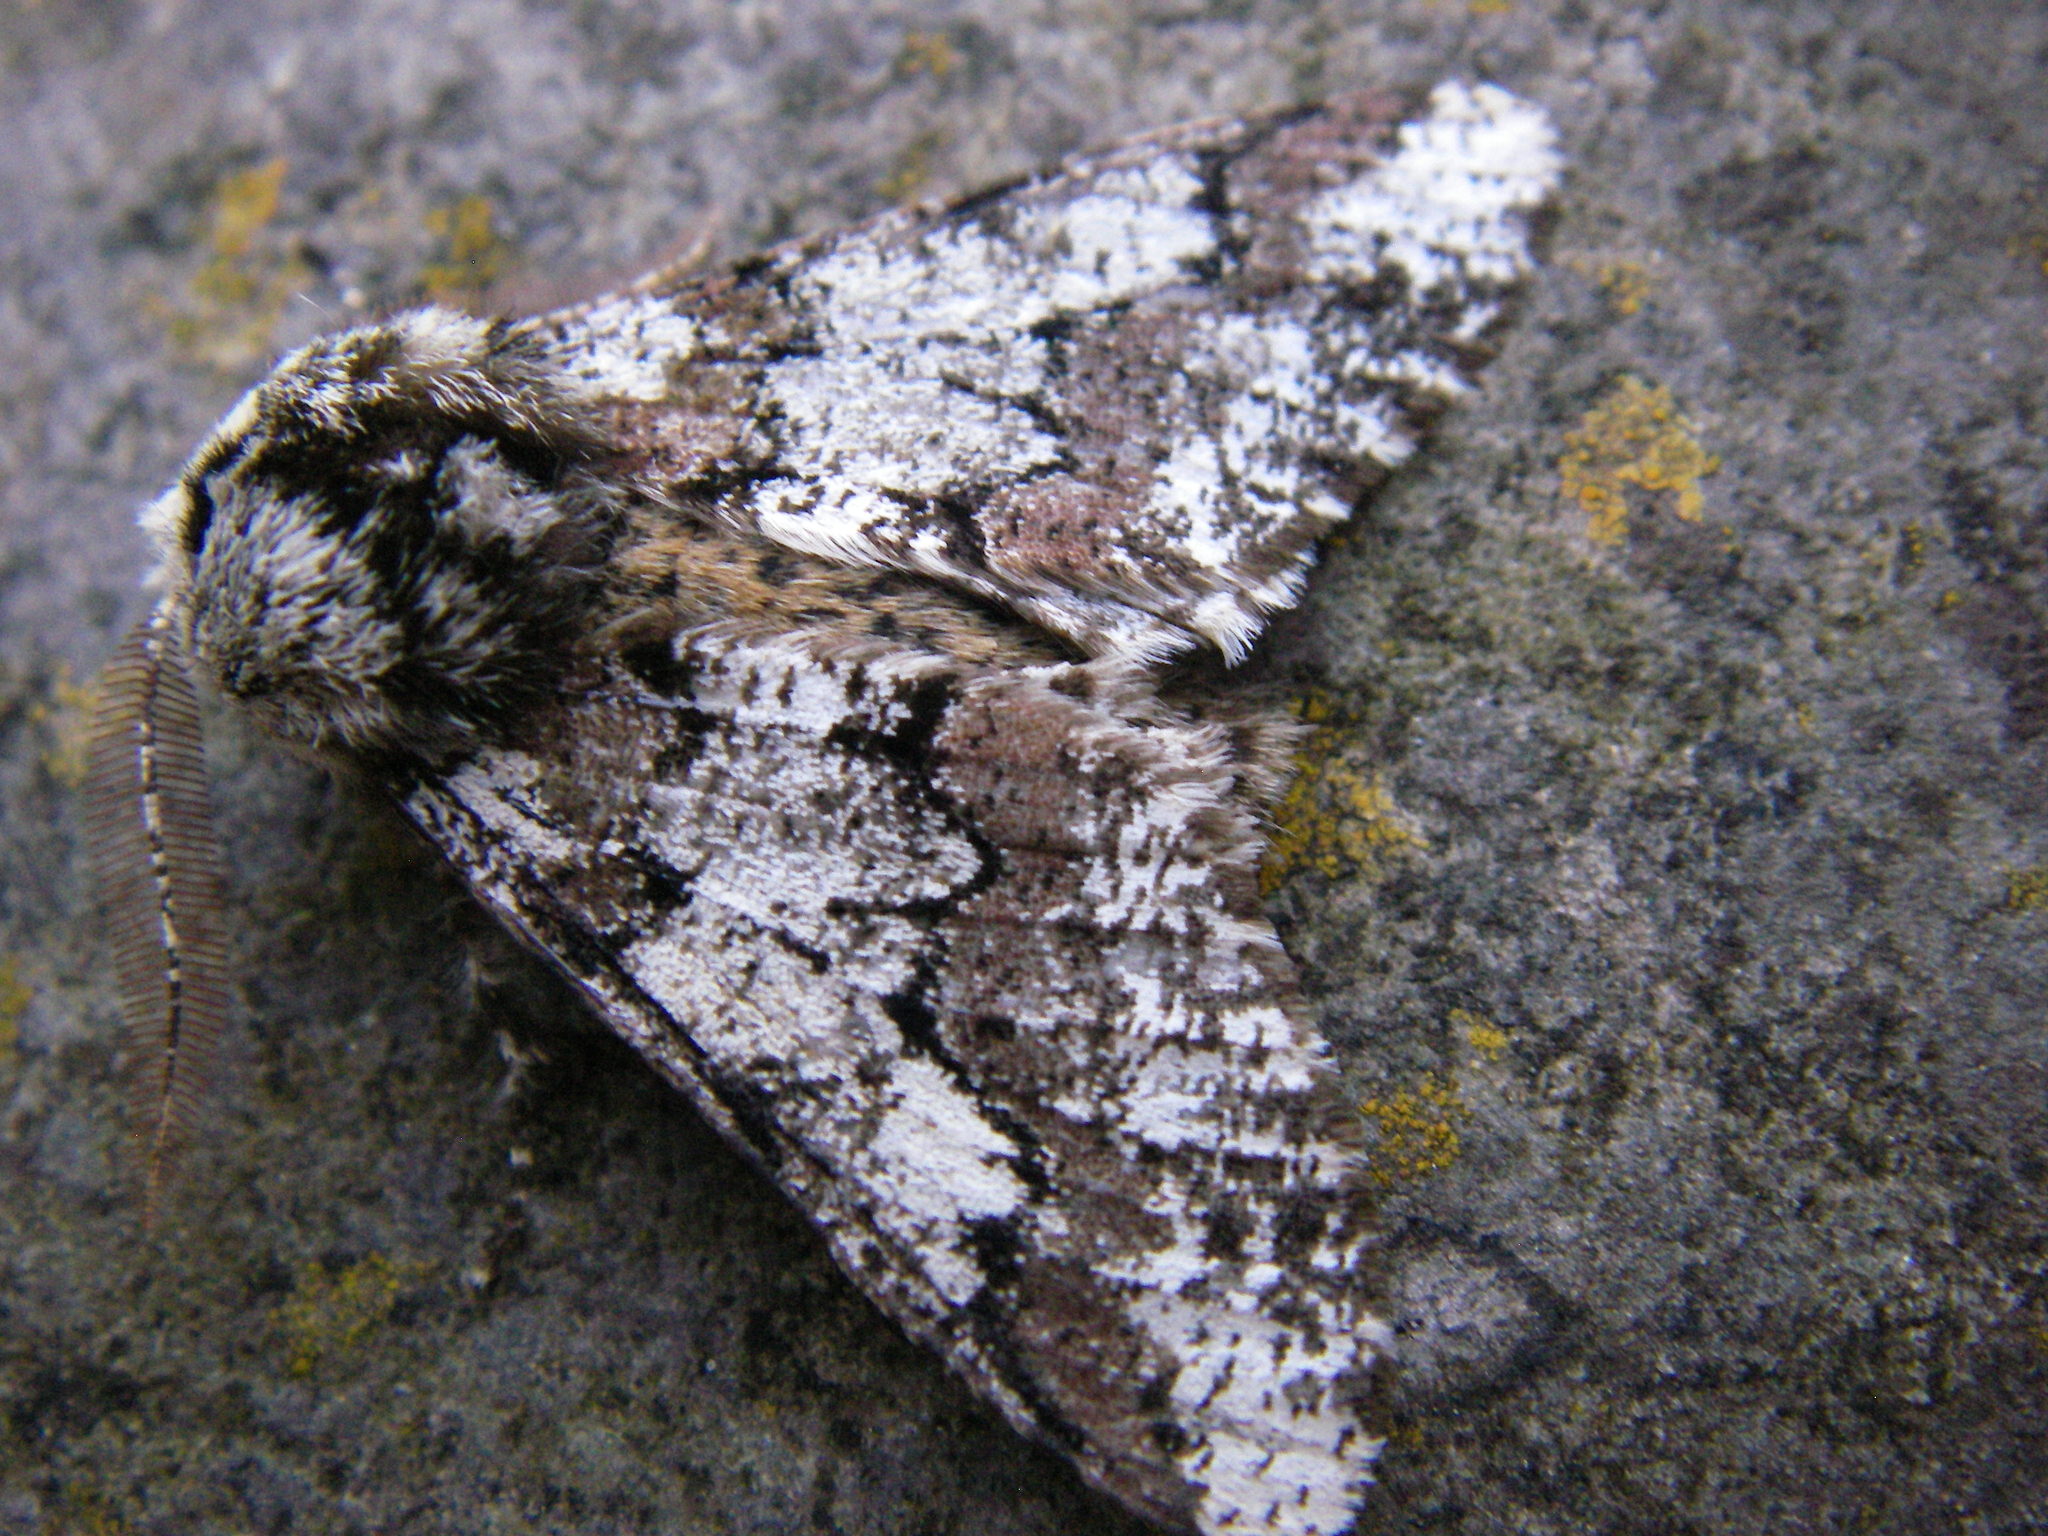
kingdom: Animalia
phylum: Arthropoda
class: Insecta
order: Lepidoptera
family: Geometridae
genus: Biston
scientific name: Biston strataria
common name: Oak beauty
